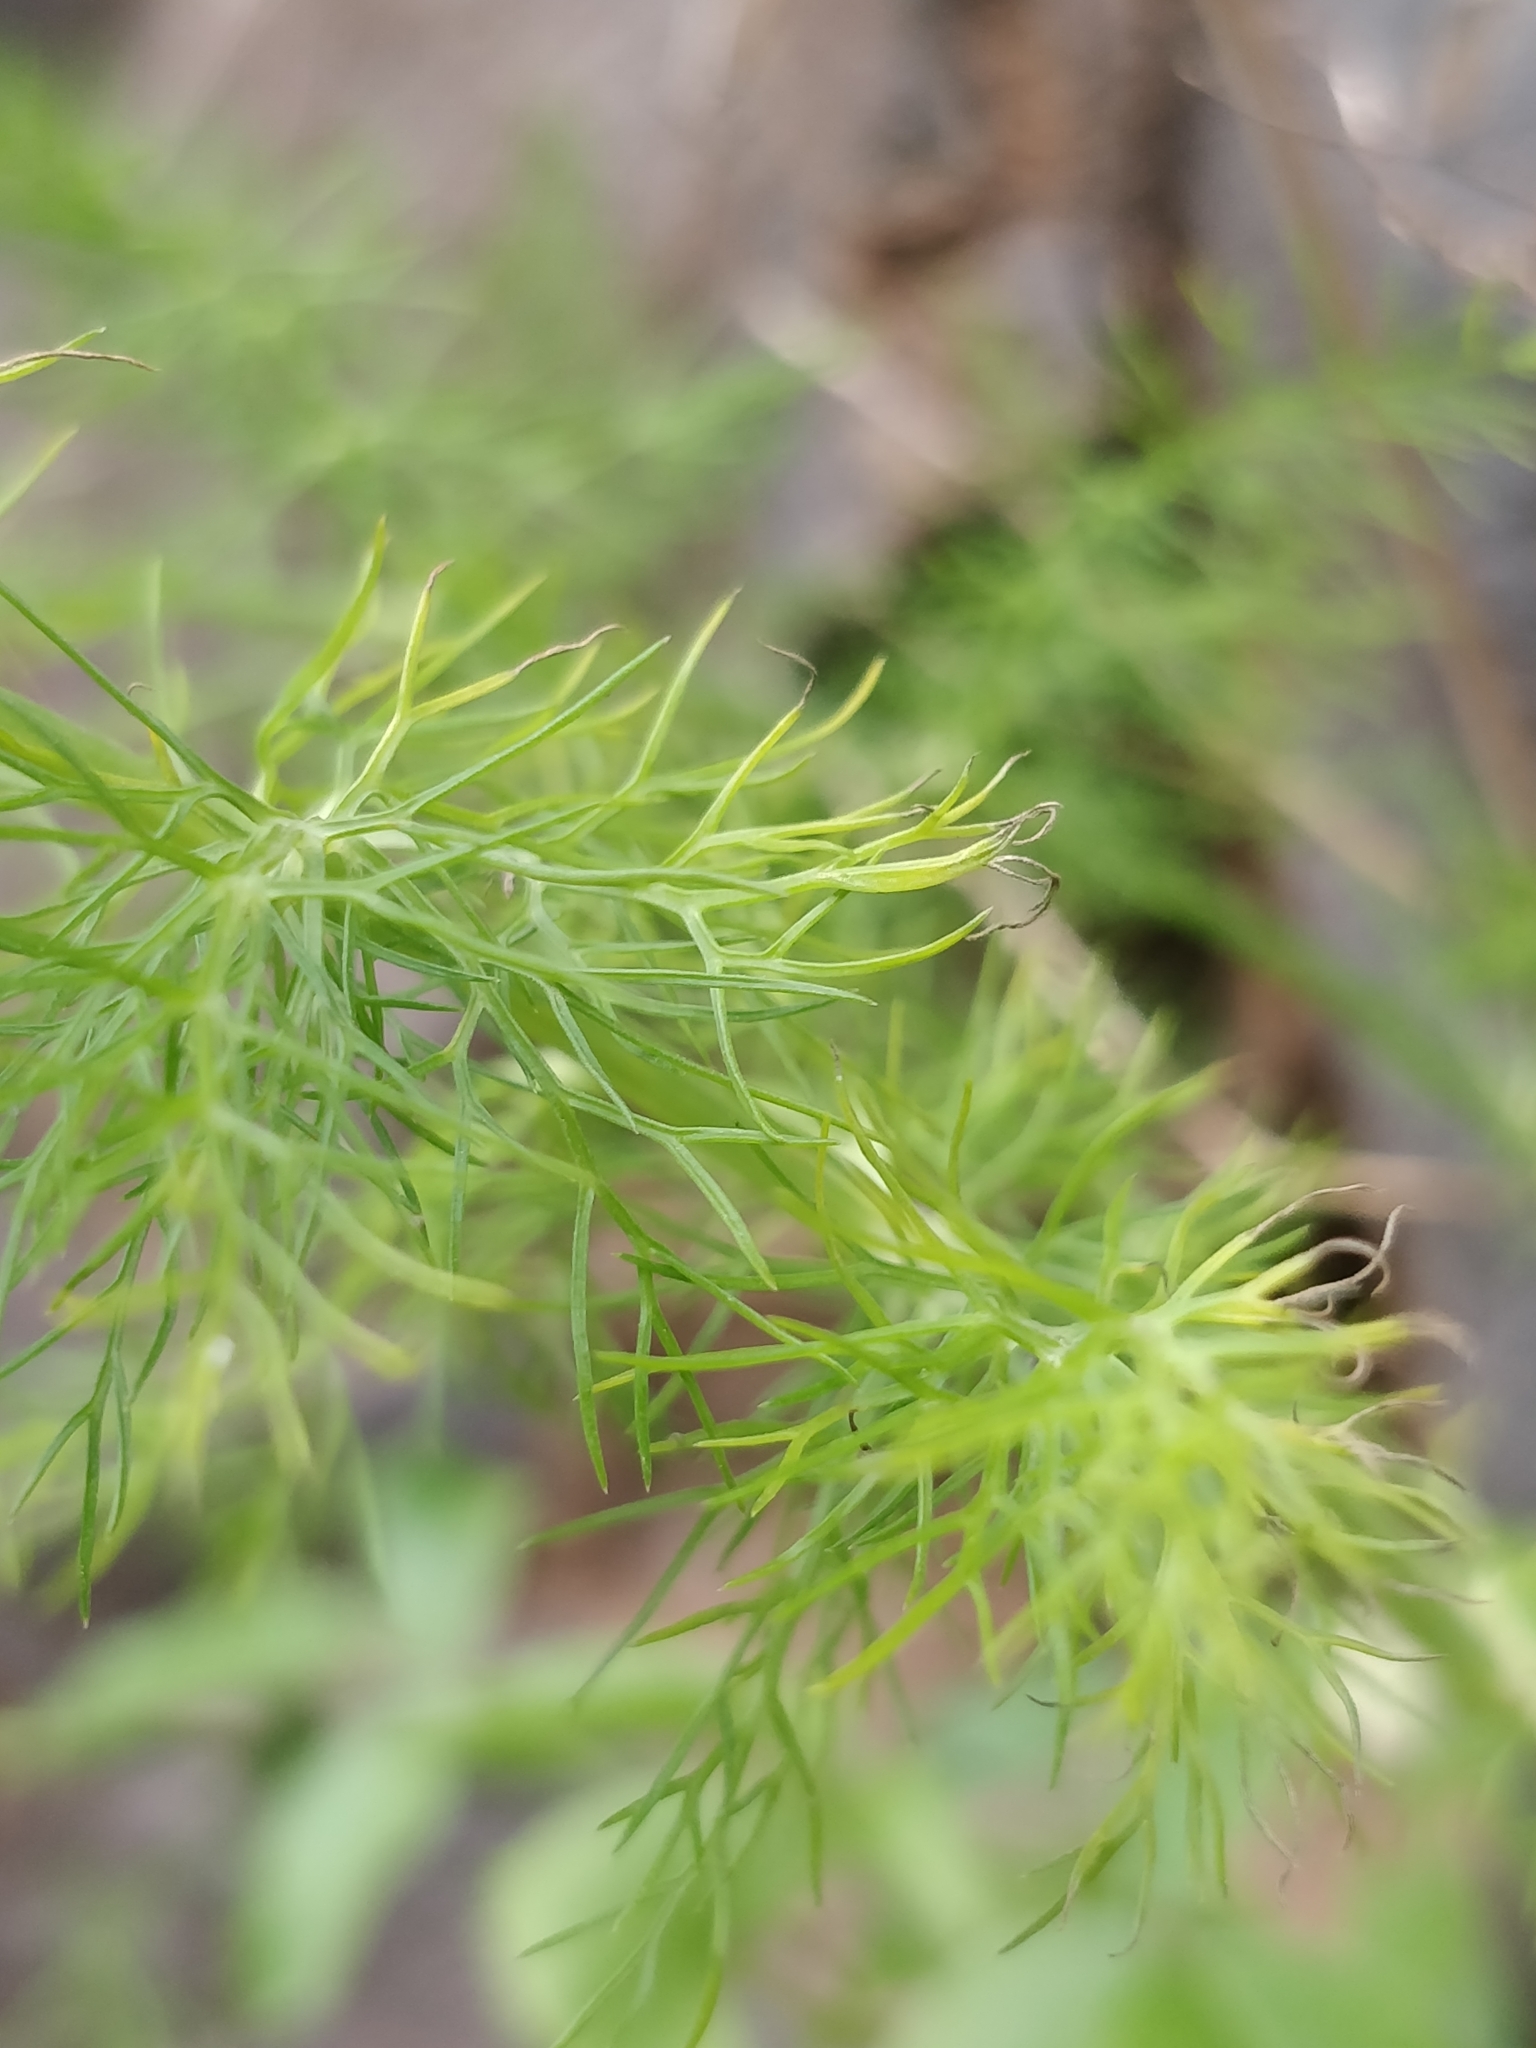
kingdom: Plantae
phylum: Tracheophyta
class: Magnoliopsida
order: Apiales
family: Apiaceae
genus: Foeniculum
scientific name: Foeniculum vulgare
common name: Fennel
